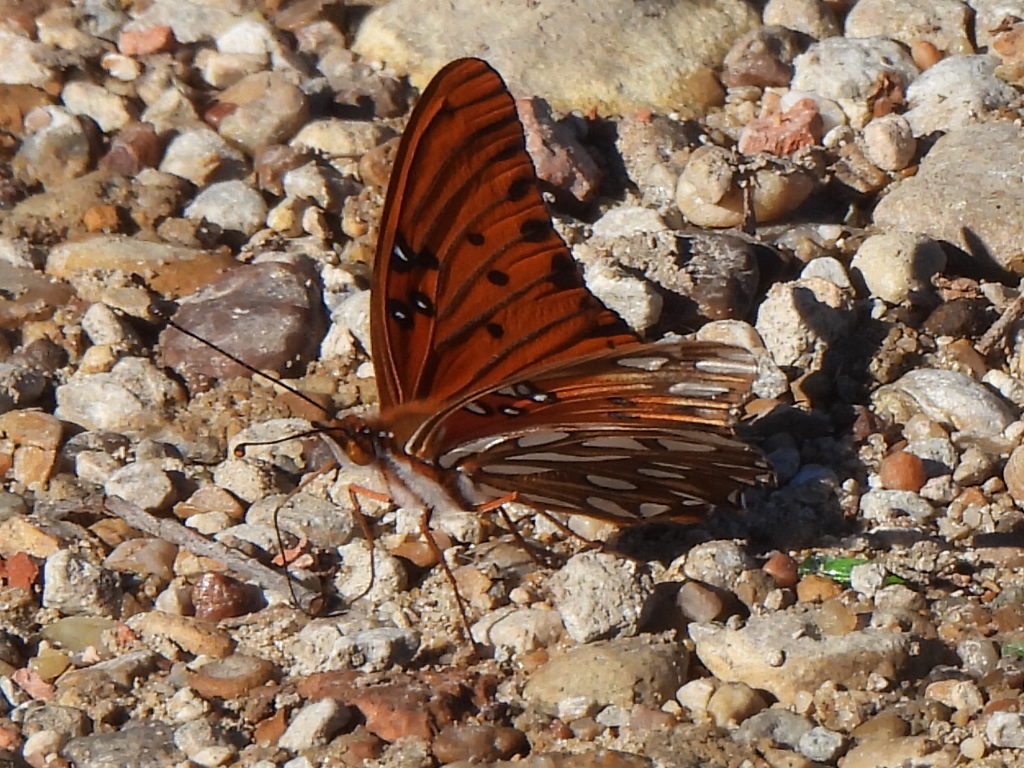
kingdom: Animalia
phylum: Arthropoda
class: Insecta
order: Lepidoptera
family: Nymphalidae
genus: Dione
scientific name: Dione vanillae
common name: Gulf fritillary
